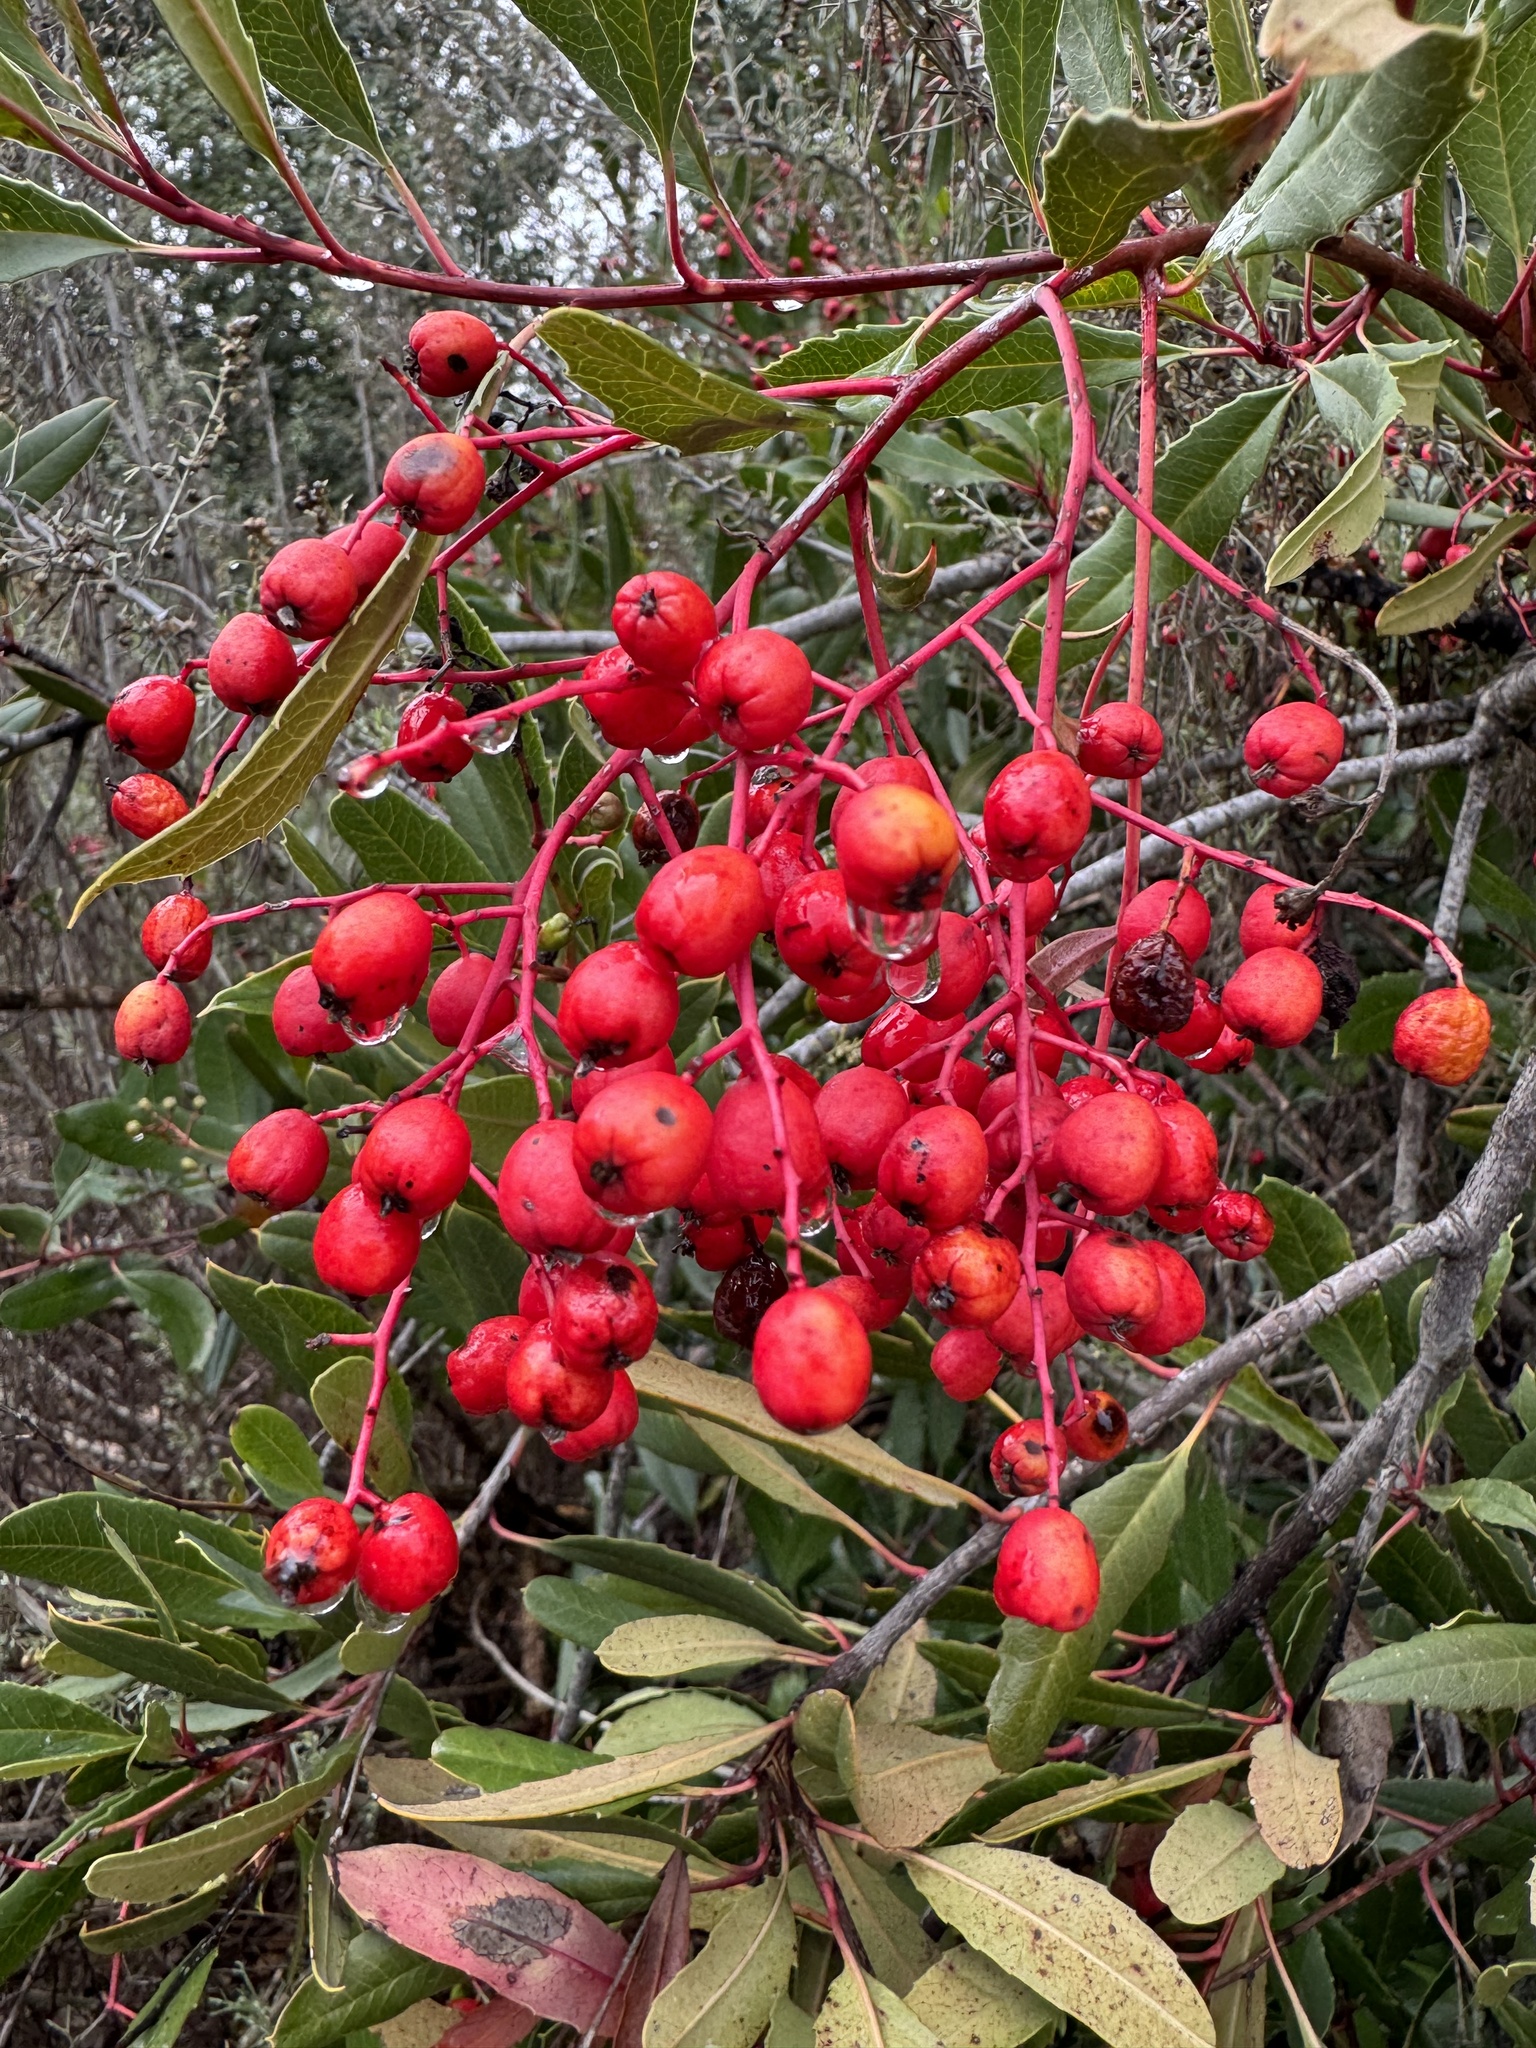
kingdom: Plantae
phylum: Tracheophyta
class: Magnoliopsida
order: Rosales
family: Rosaceae
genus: Heteromeles
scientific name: Heteromeles arbutifolia
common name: California-holly
